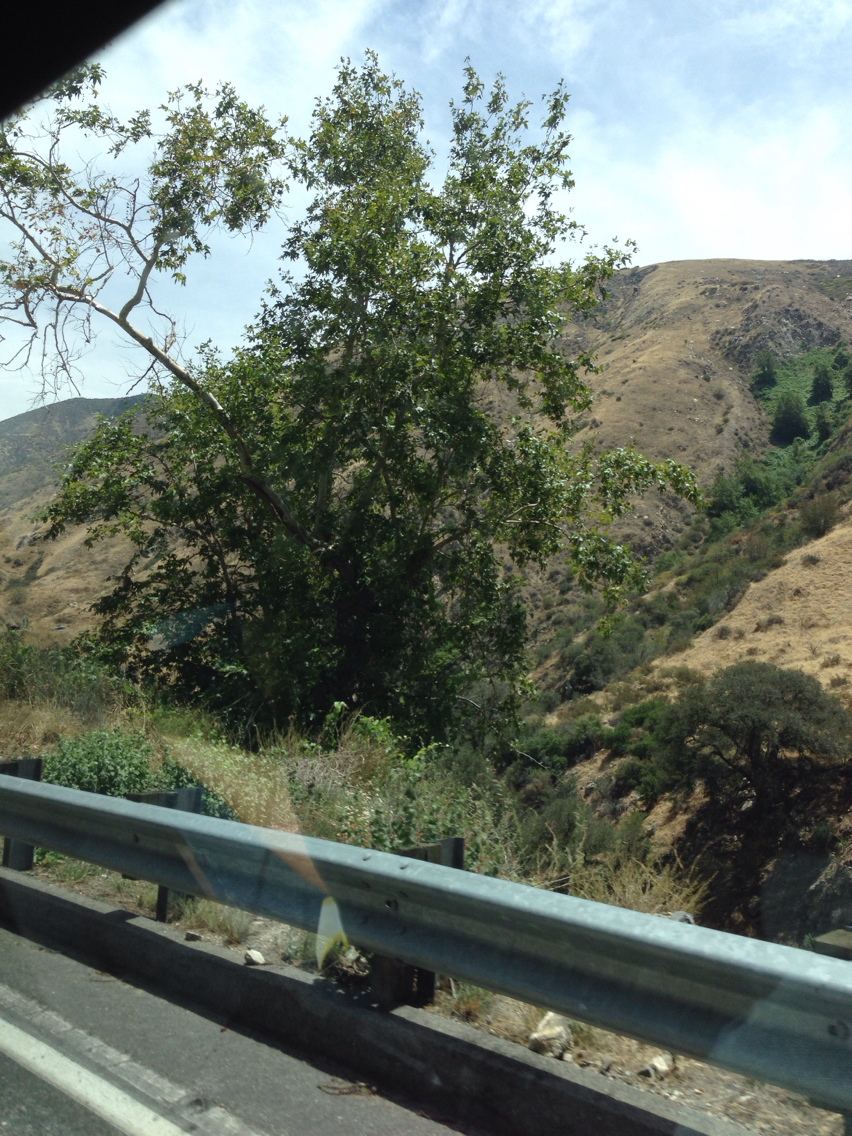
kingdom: Plantae
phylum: Tracheophyta
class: Magnoliopsida
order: Proteales
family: Platanaceae
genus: Platanus
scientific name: Platanus racemosa
